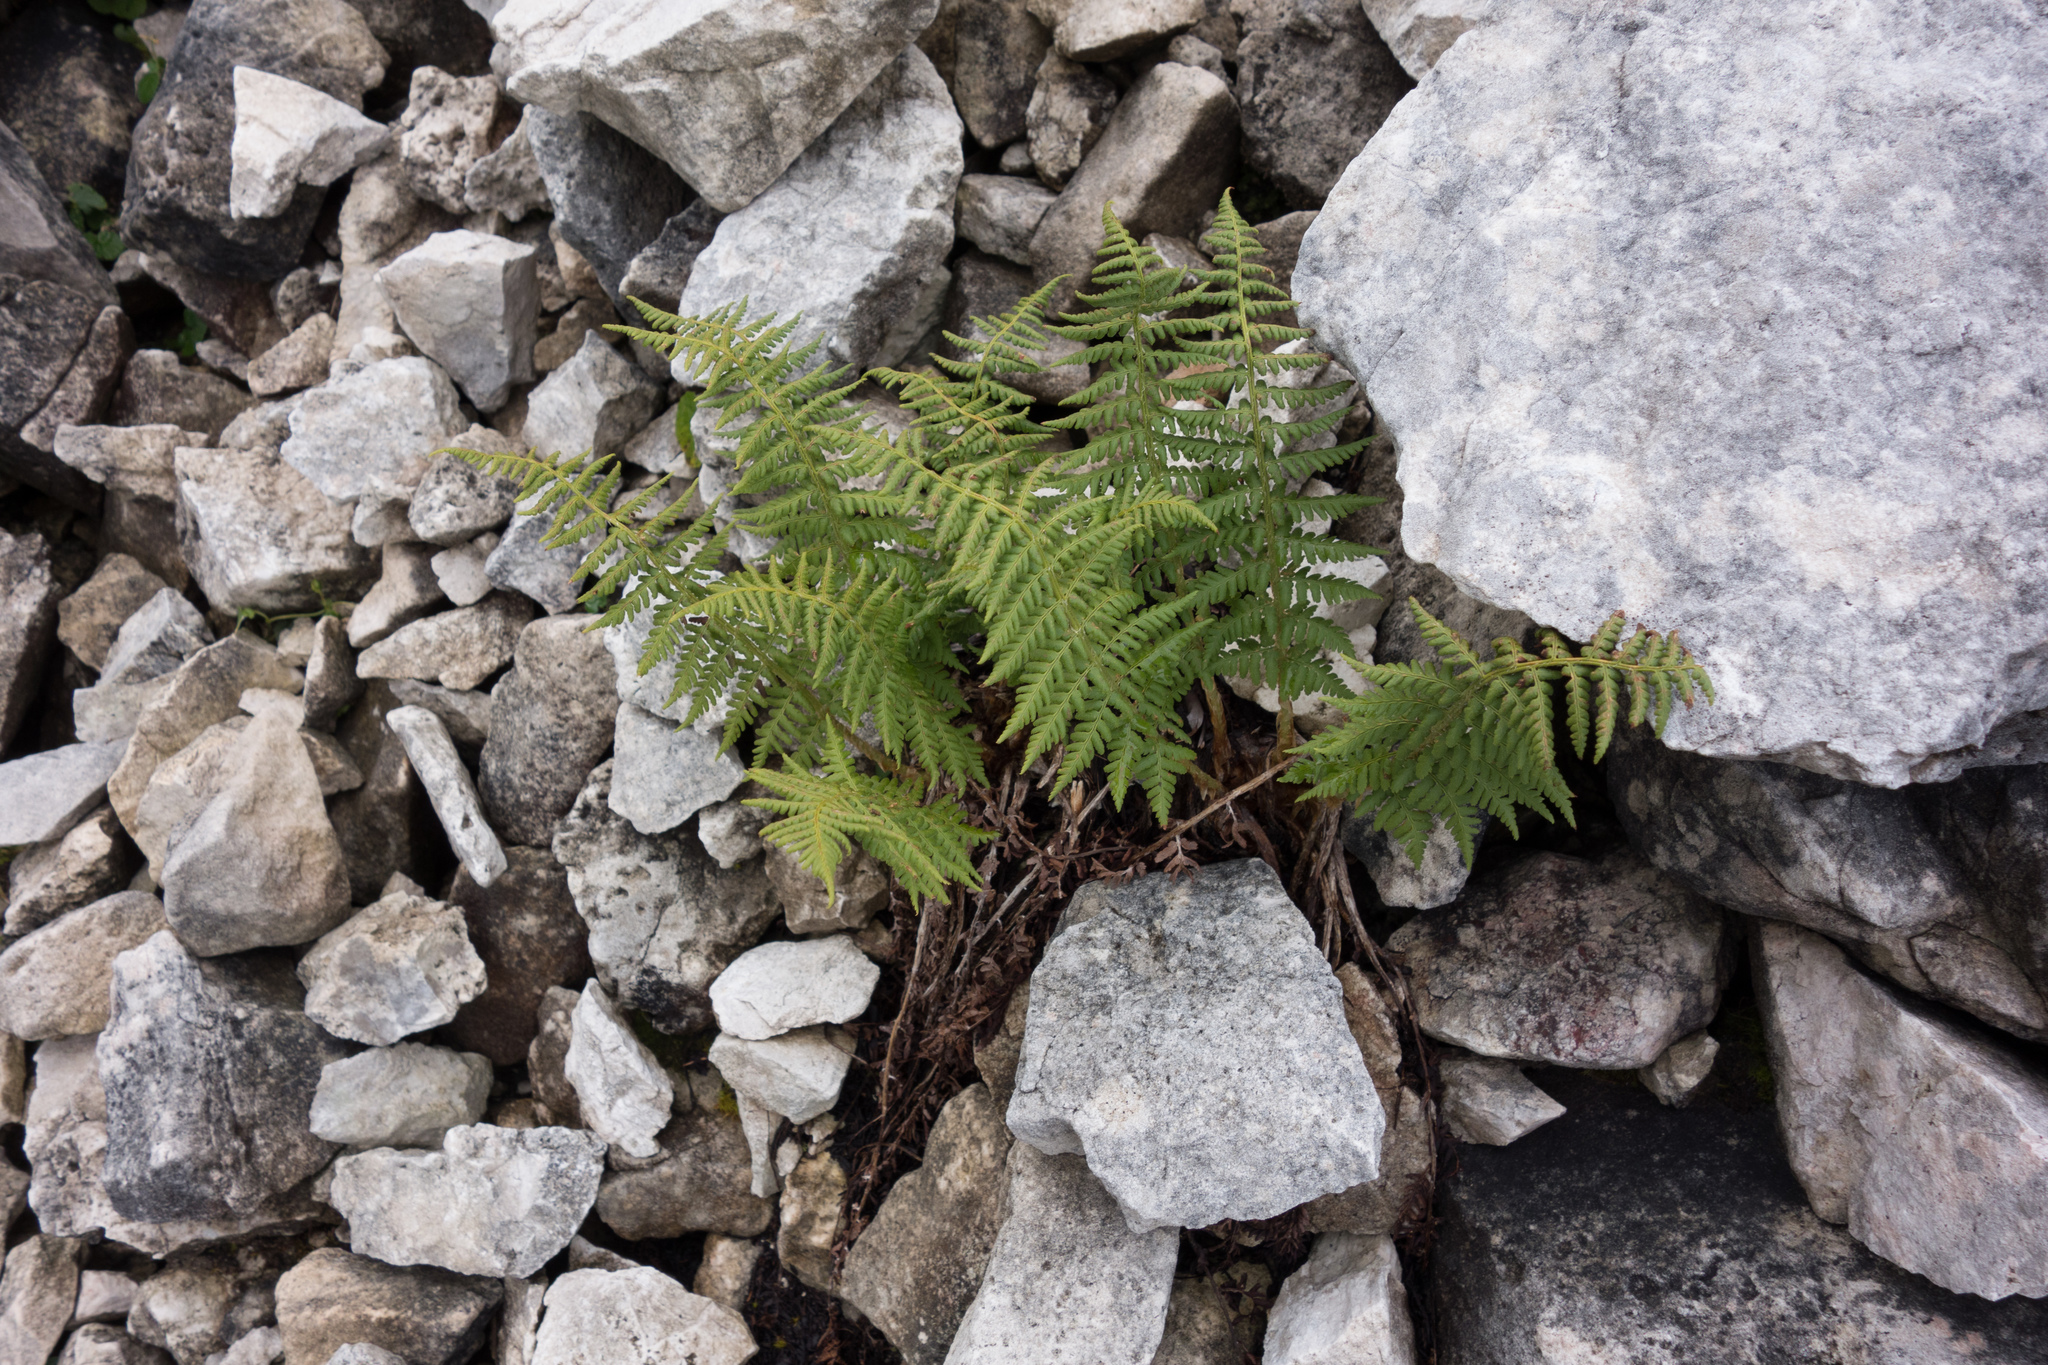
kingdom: Plantae
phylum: Tracheophyta
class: Polypodiopsida
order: Polypodiales
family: Dryopteridaceae
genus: Dryopteris
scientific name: Dryopteris villarii
